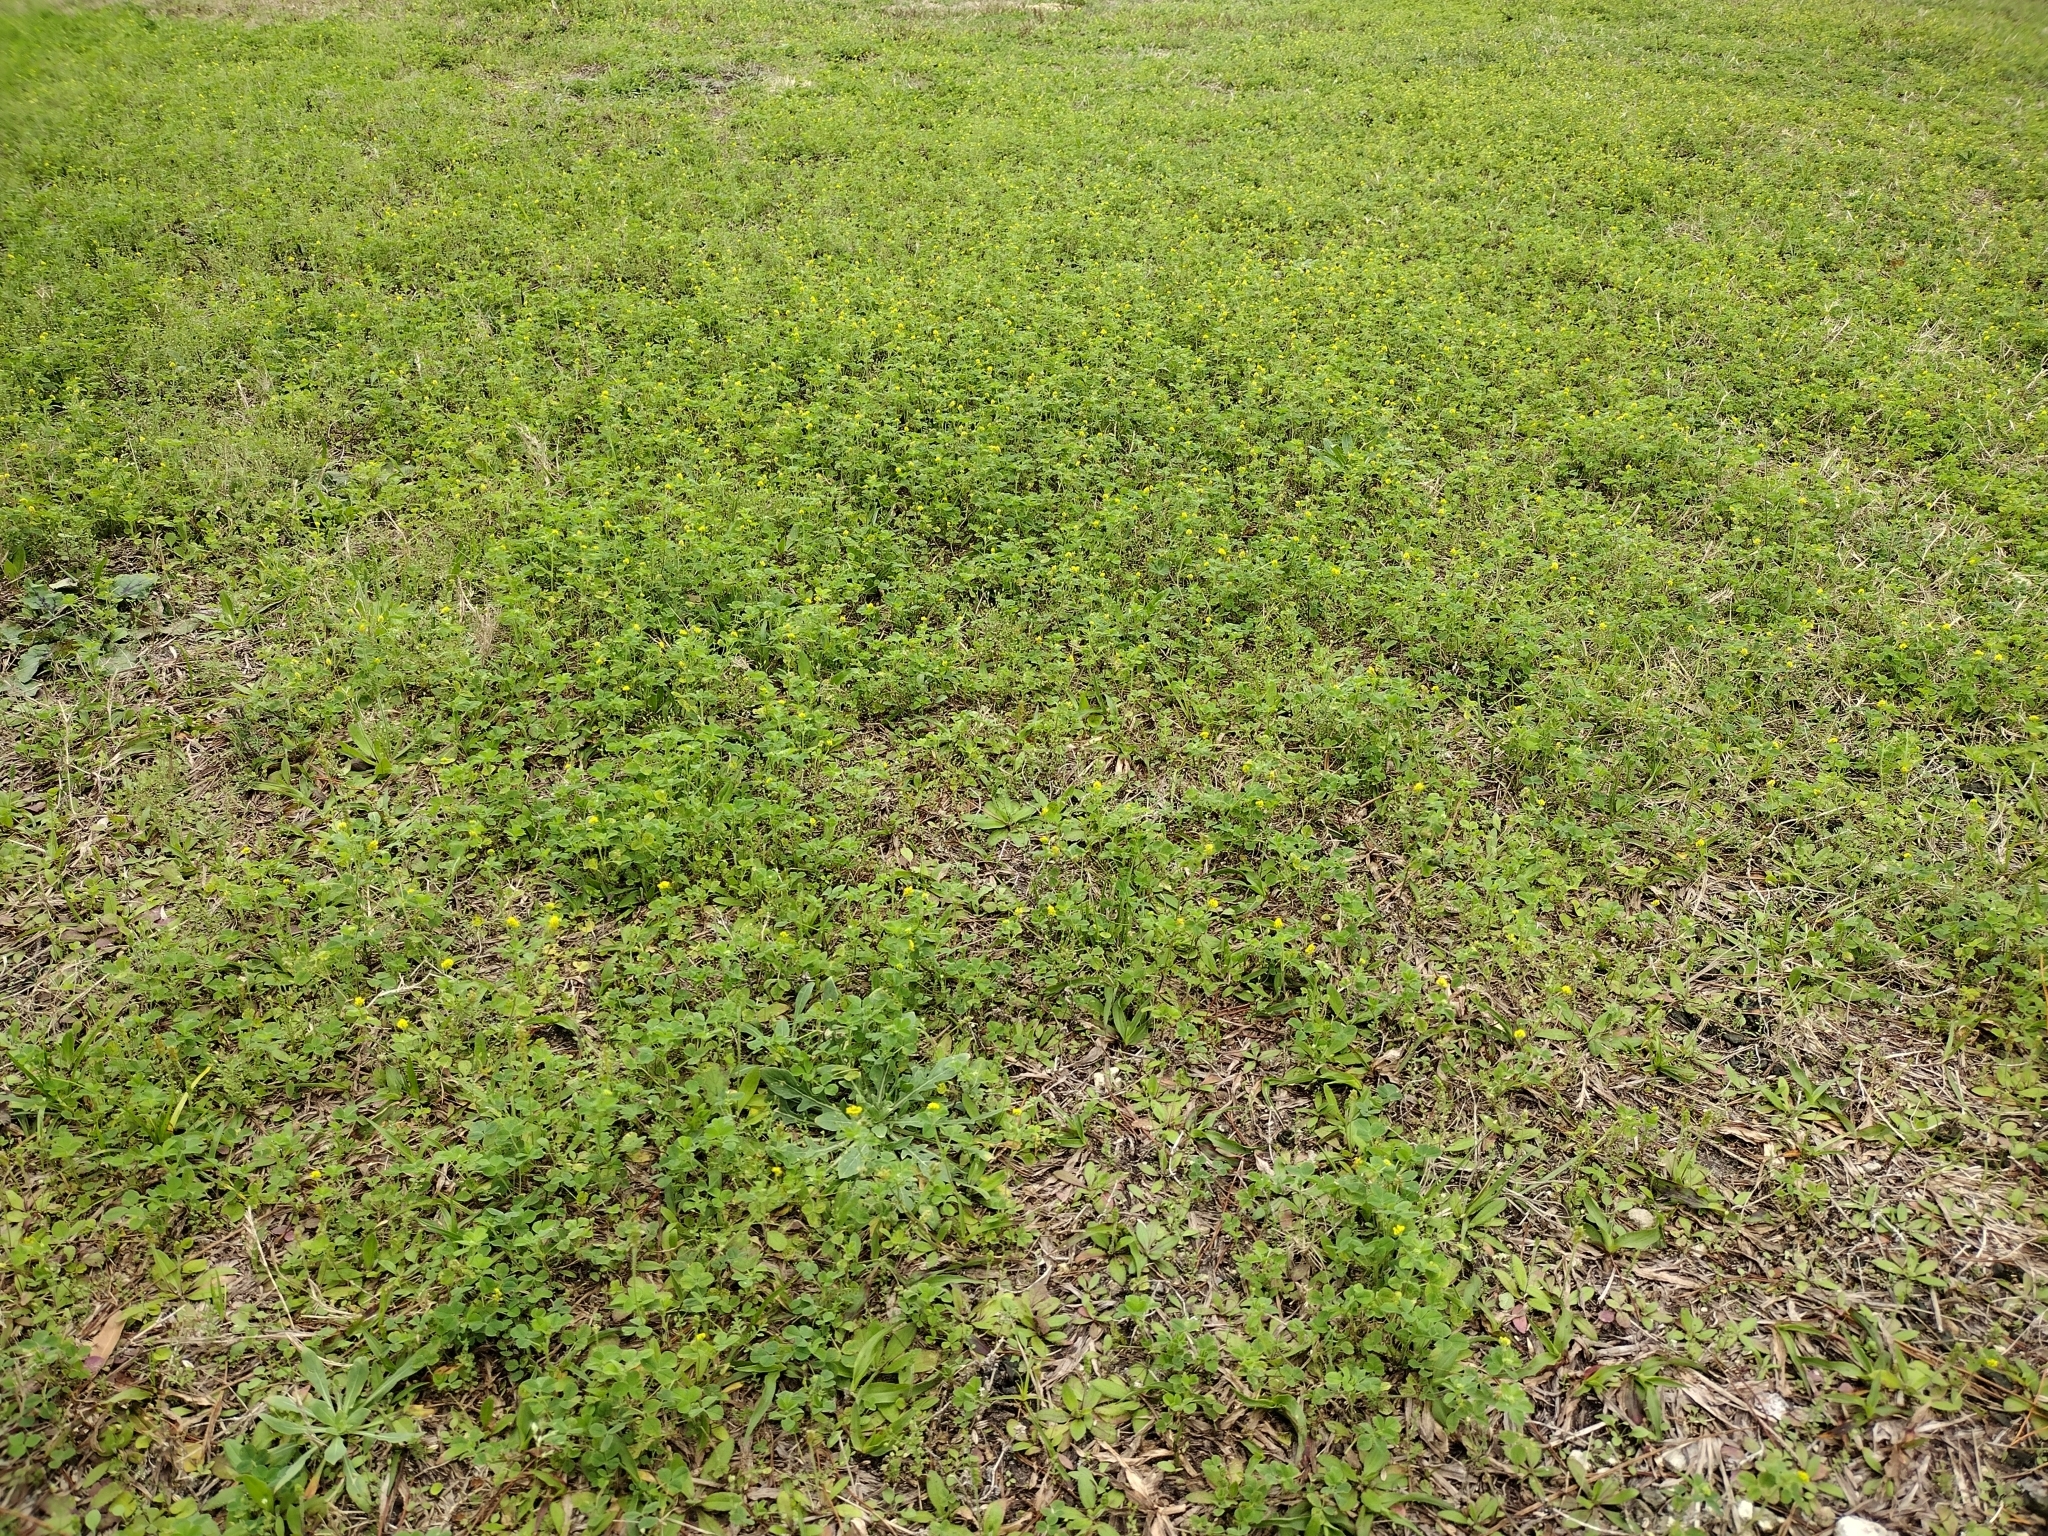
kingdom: Plantae
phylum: Tracheophyta
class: Magnoliopsida
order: Fabales
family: Fabaceae
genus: Medicago
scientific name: Medicago lupulina
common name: Black medick
